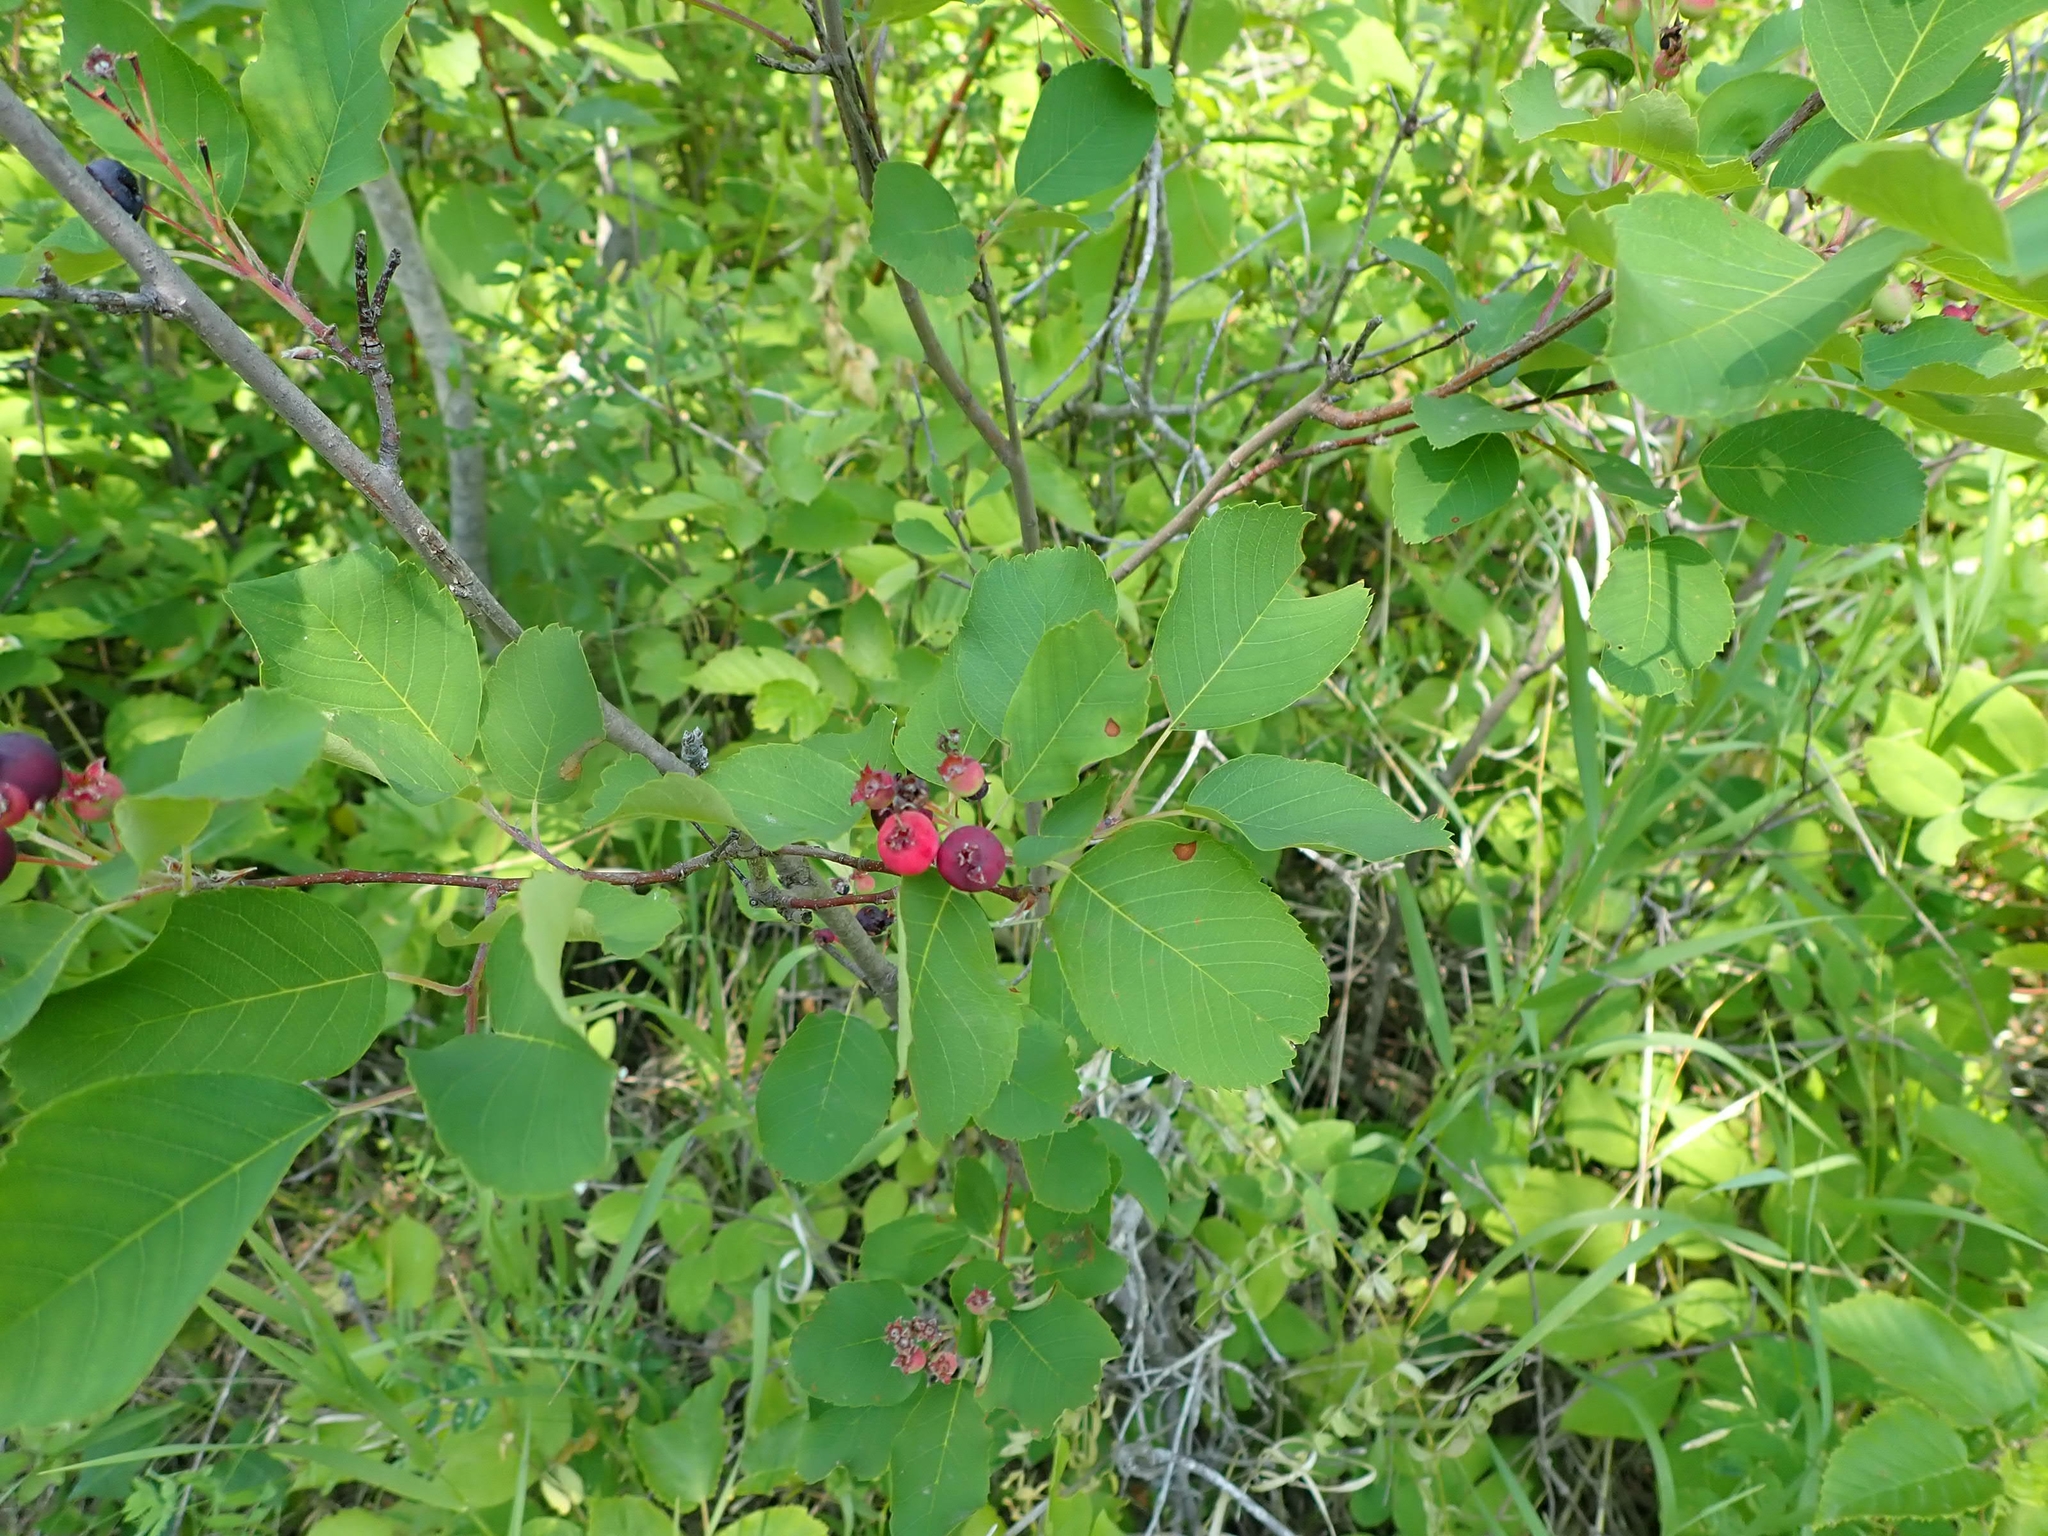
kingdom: Plantae
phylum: Tracheophyta
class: Magnoliopsida
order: Rosales
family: Rosaceae
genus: Amelanchier
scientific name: Amelanchier alnifolia
